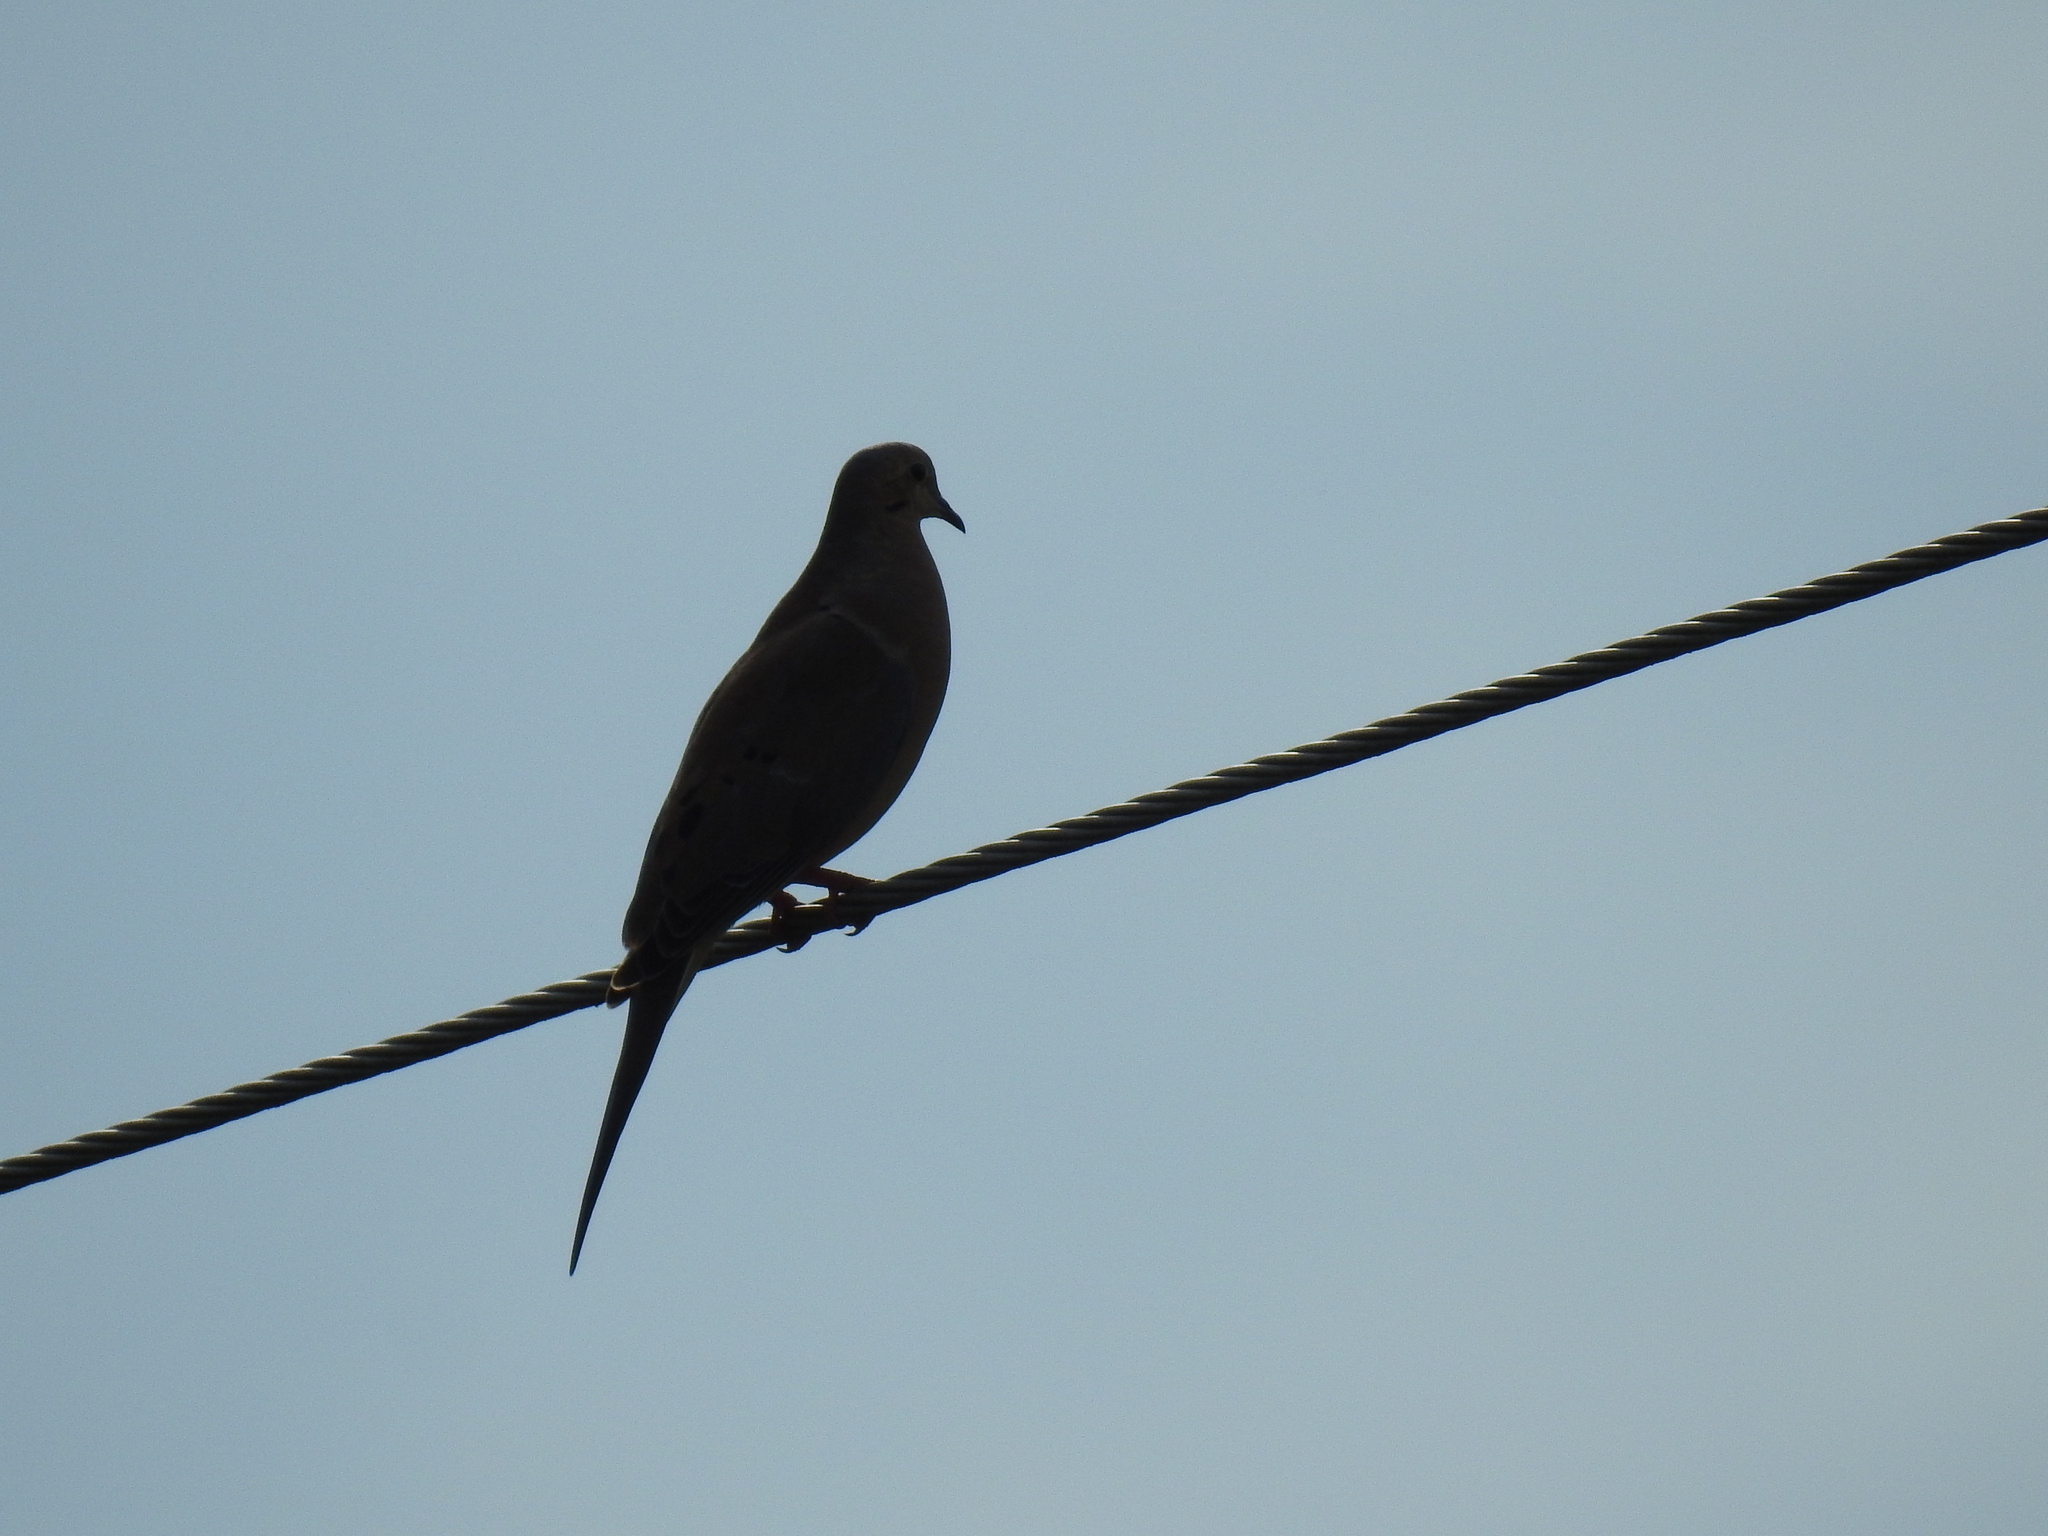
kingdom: Animalia
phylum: Chordata
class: Aves
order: Columbiformes
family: Columbidae
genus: Zenaida
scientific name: Zenaida macroura
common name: Mourning dove
